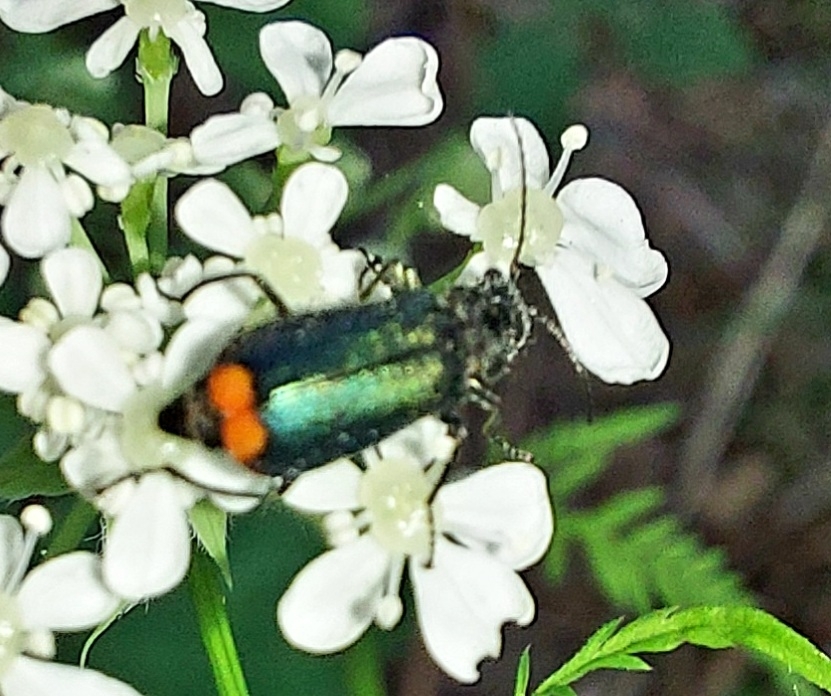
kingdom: Animalia
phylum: Arthropoda
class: Insecta
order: Coleoptera
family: Melyridae
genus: Malachius
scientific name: Malachius bipustulatus
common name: Malachite beetle
